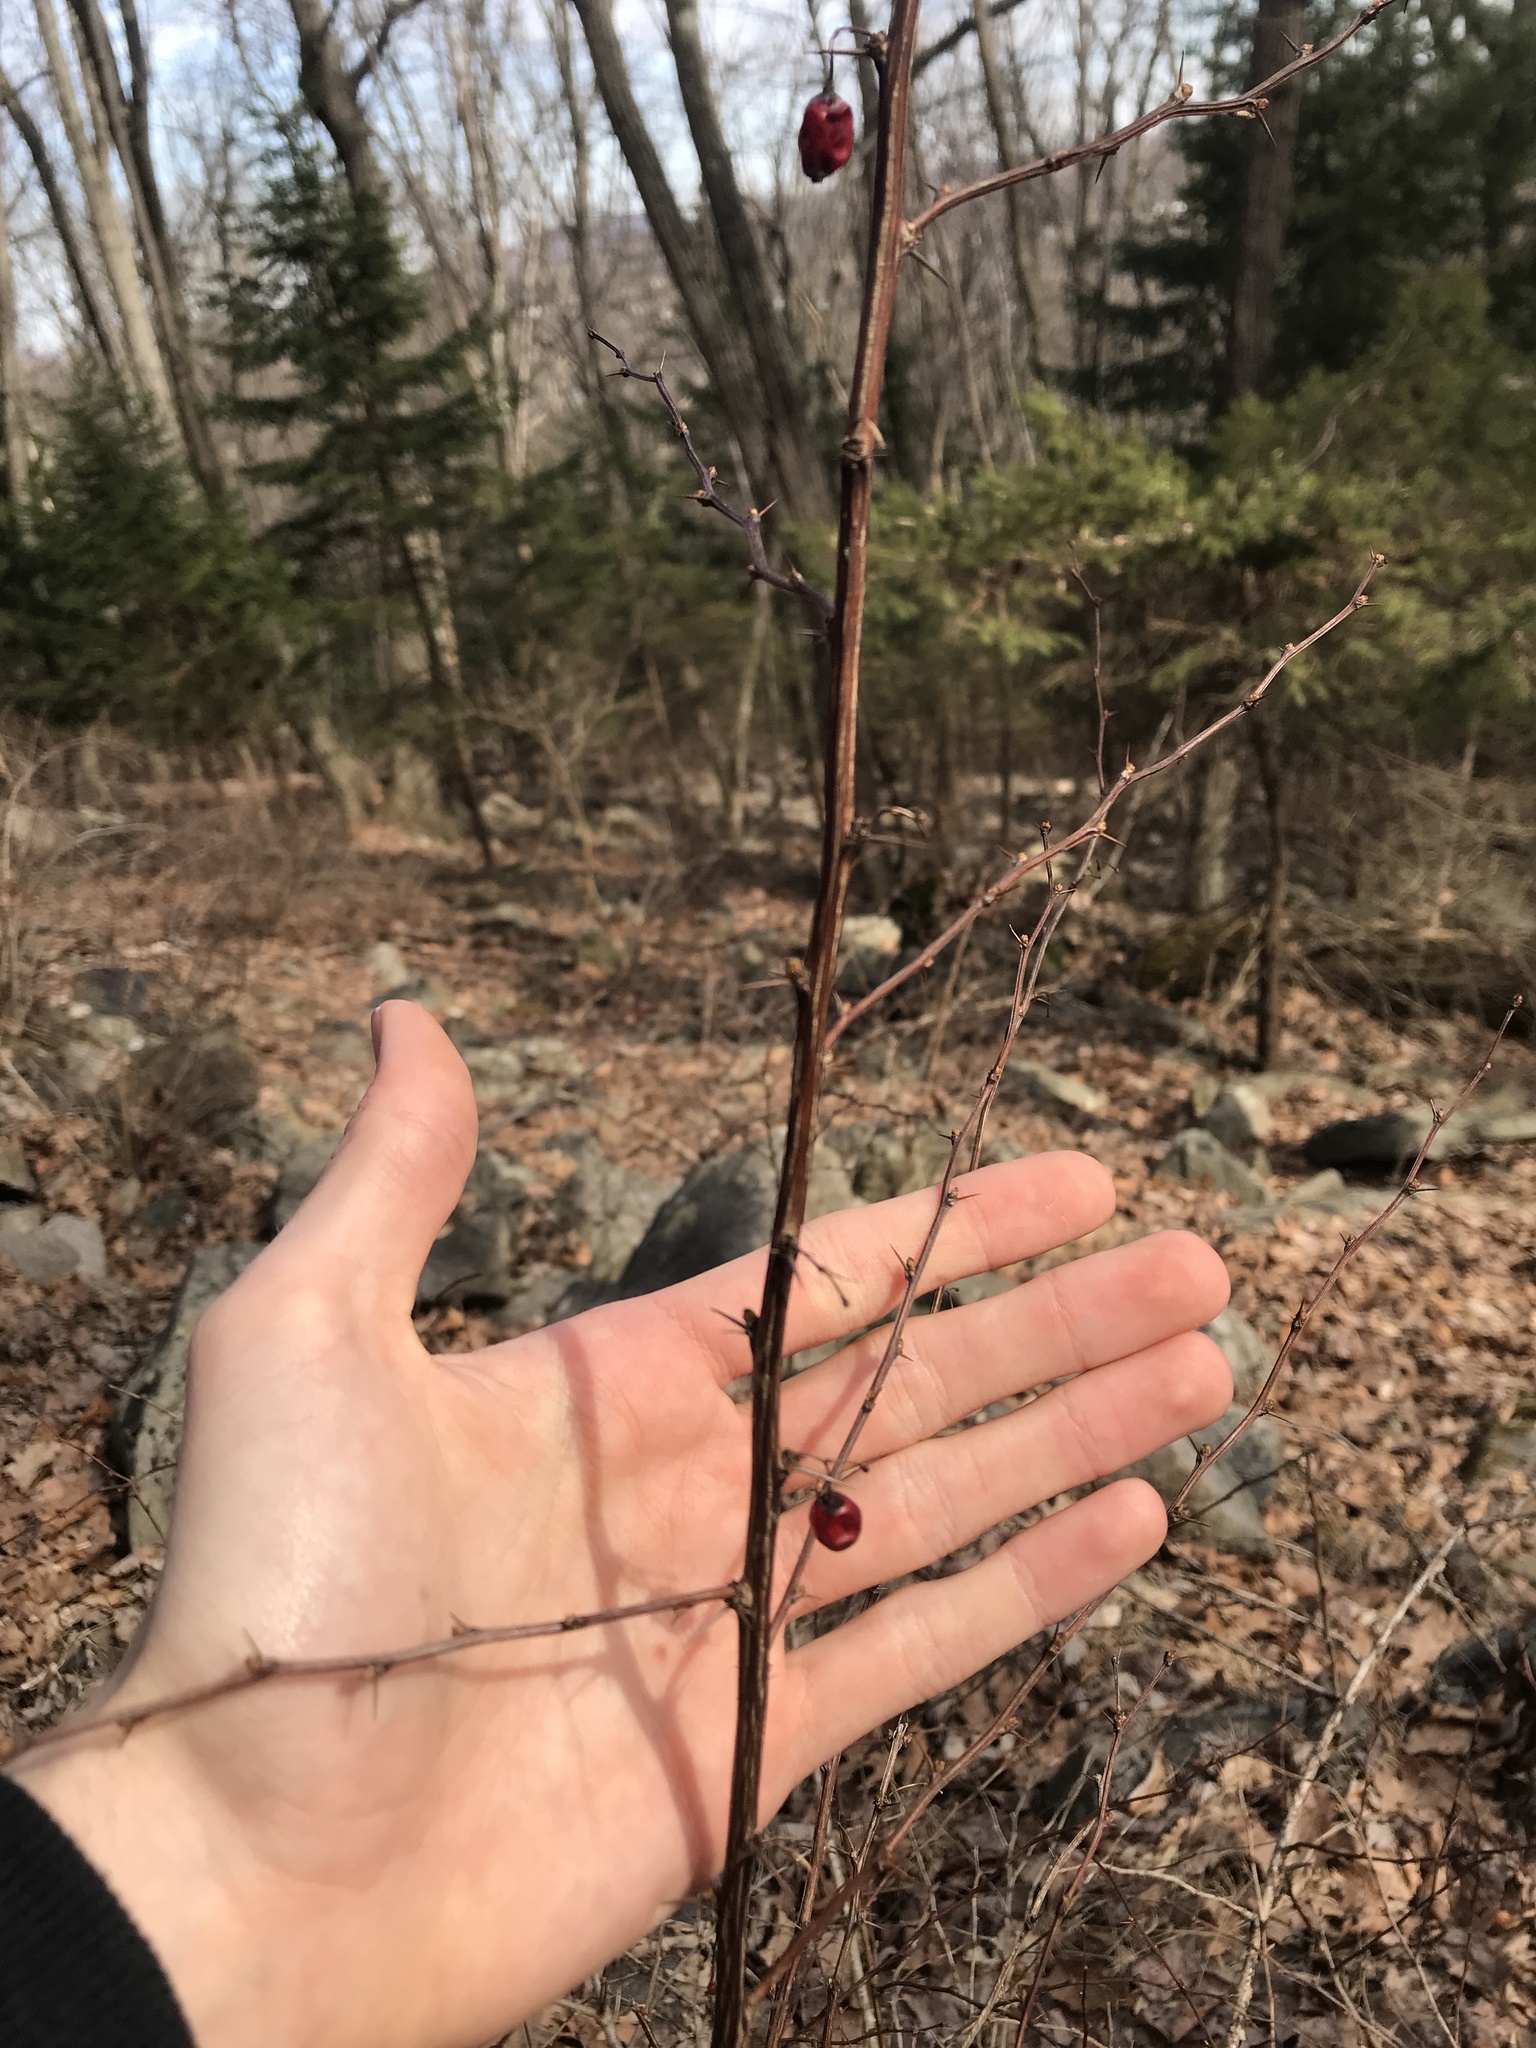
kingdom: Plantae
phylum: Tracheophyta
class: Magnoliopsida
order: Ranunculales
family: Berberidaceae
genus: Berberis
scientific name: Berberis thunbergii
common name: Japanese barberry
